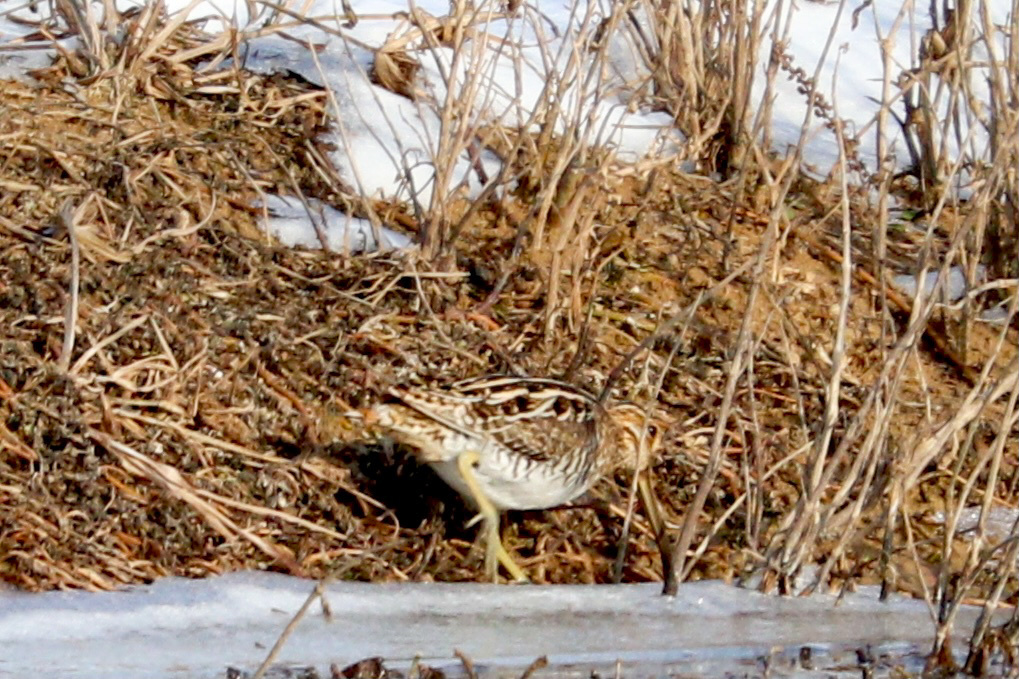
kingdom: Animalia
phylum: Chordata
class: Aves
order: Charadriiformes
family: Scolopacidae
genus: Gallinago
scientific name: Gallinago delicata
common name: Wilson's snipe
